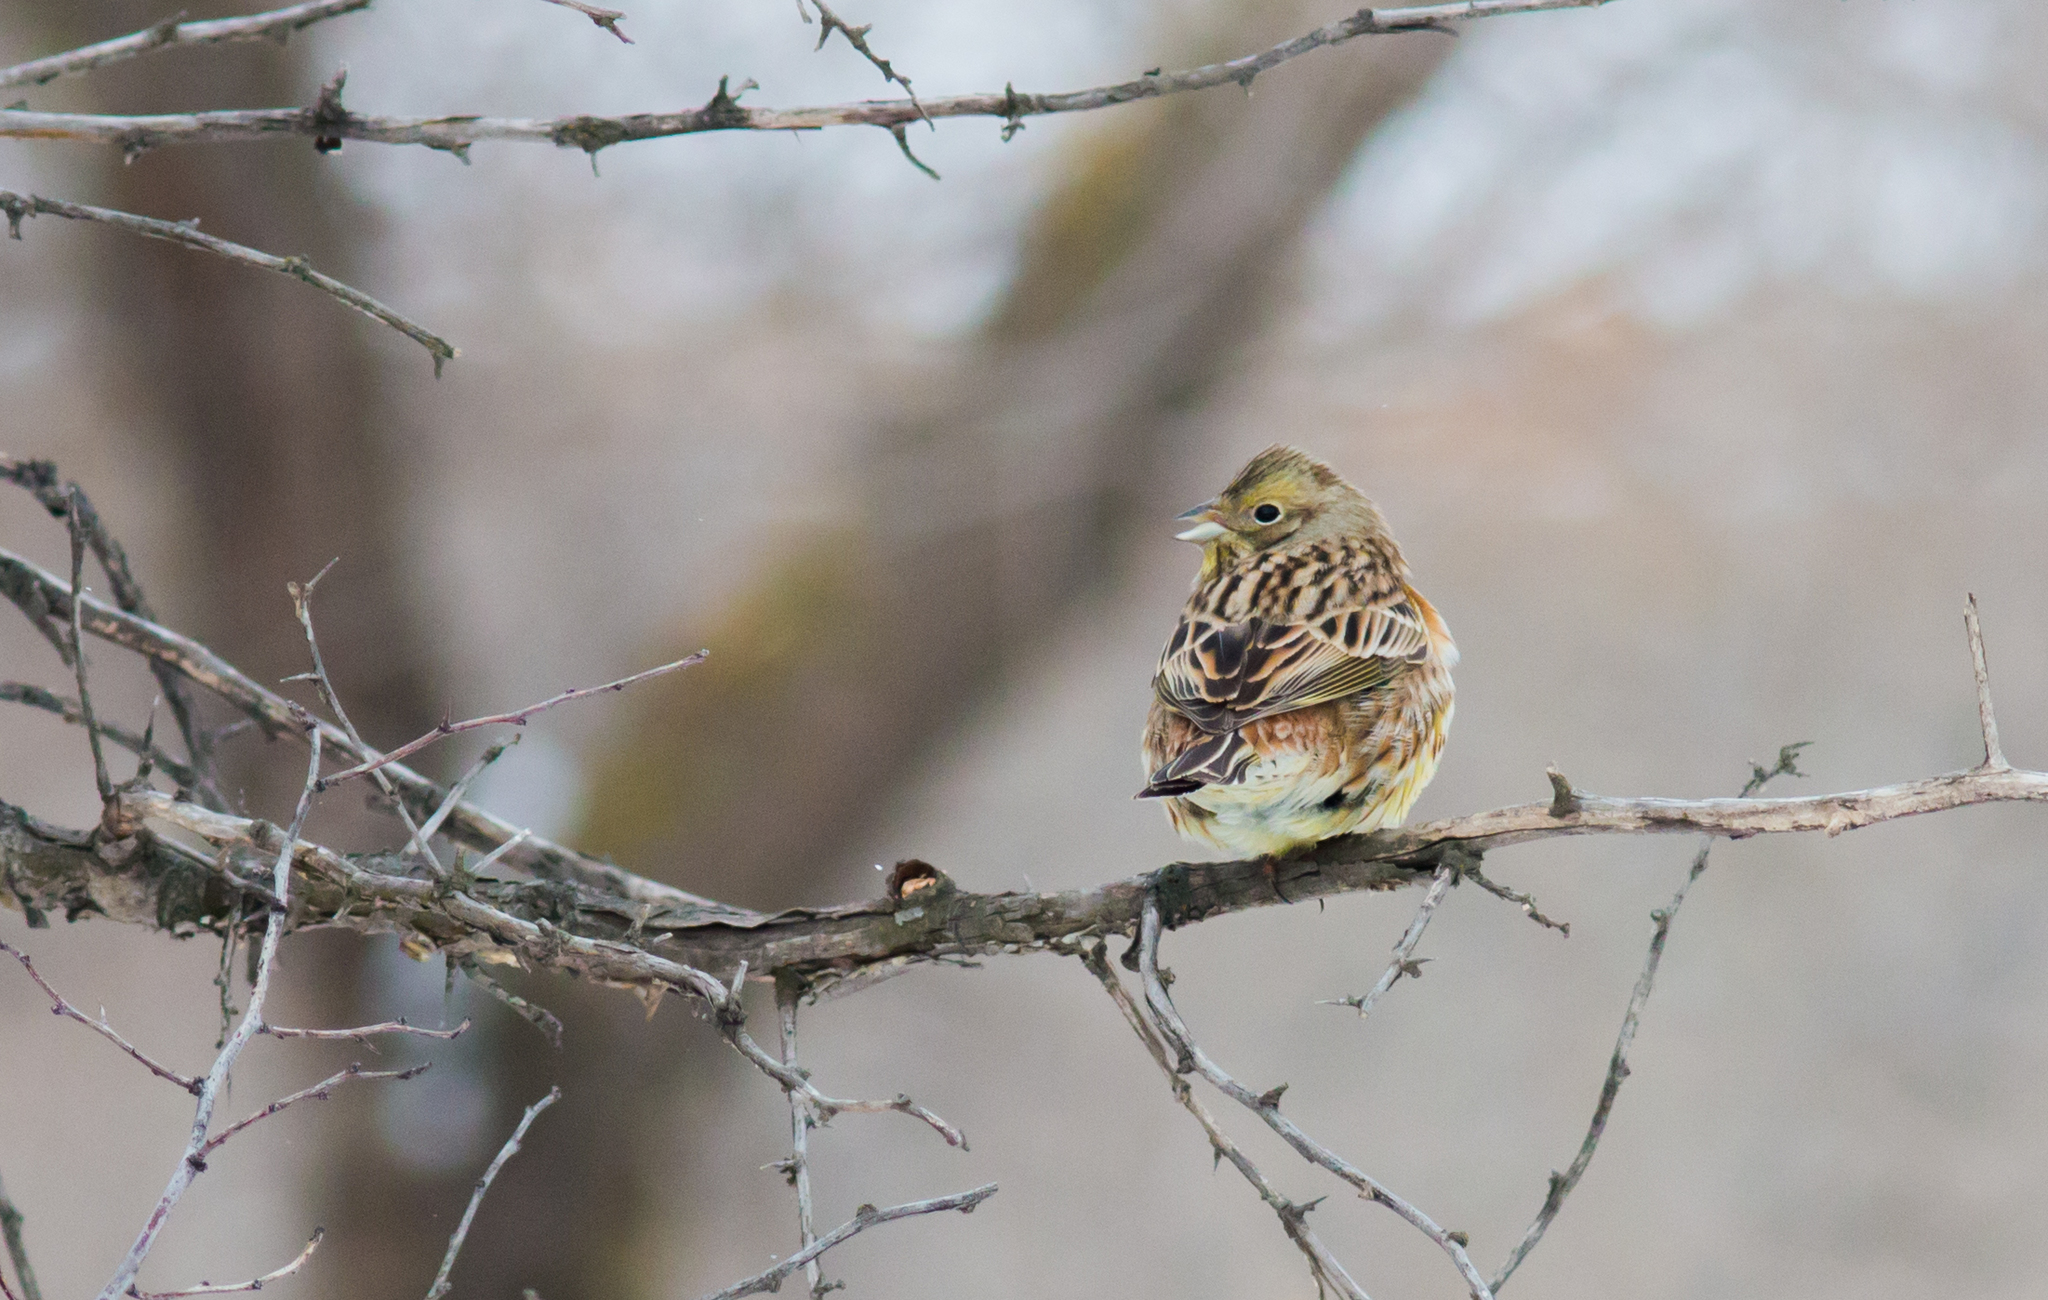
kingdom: Animalia
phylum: Chordata
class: Aves
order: Passeriformes
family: Emberizidae
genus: Emberiza
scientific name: Emberiza citrinella
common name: Yellowhammer
